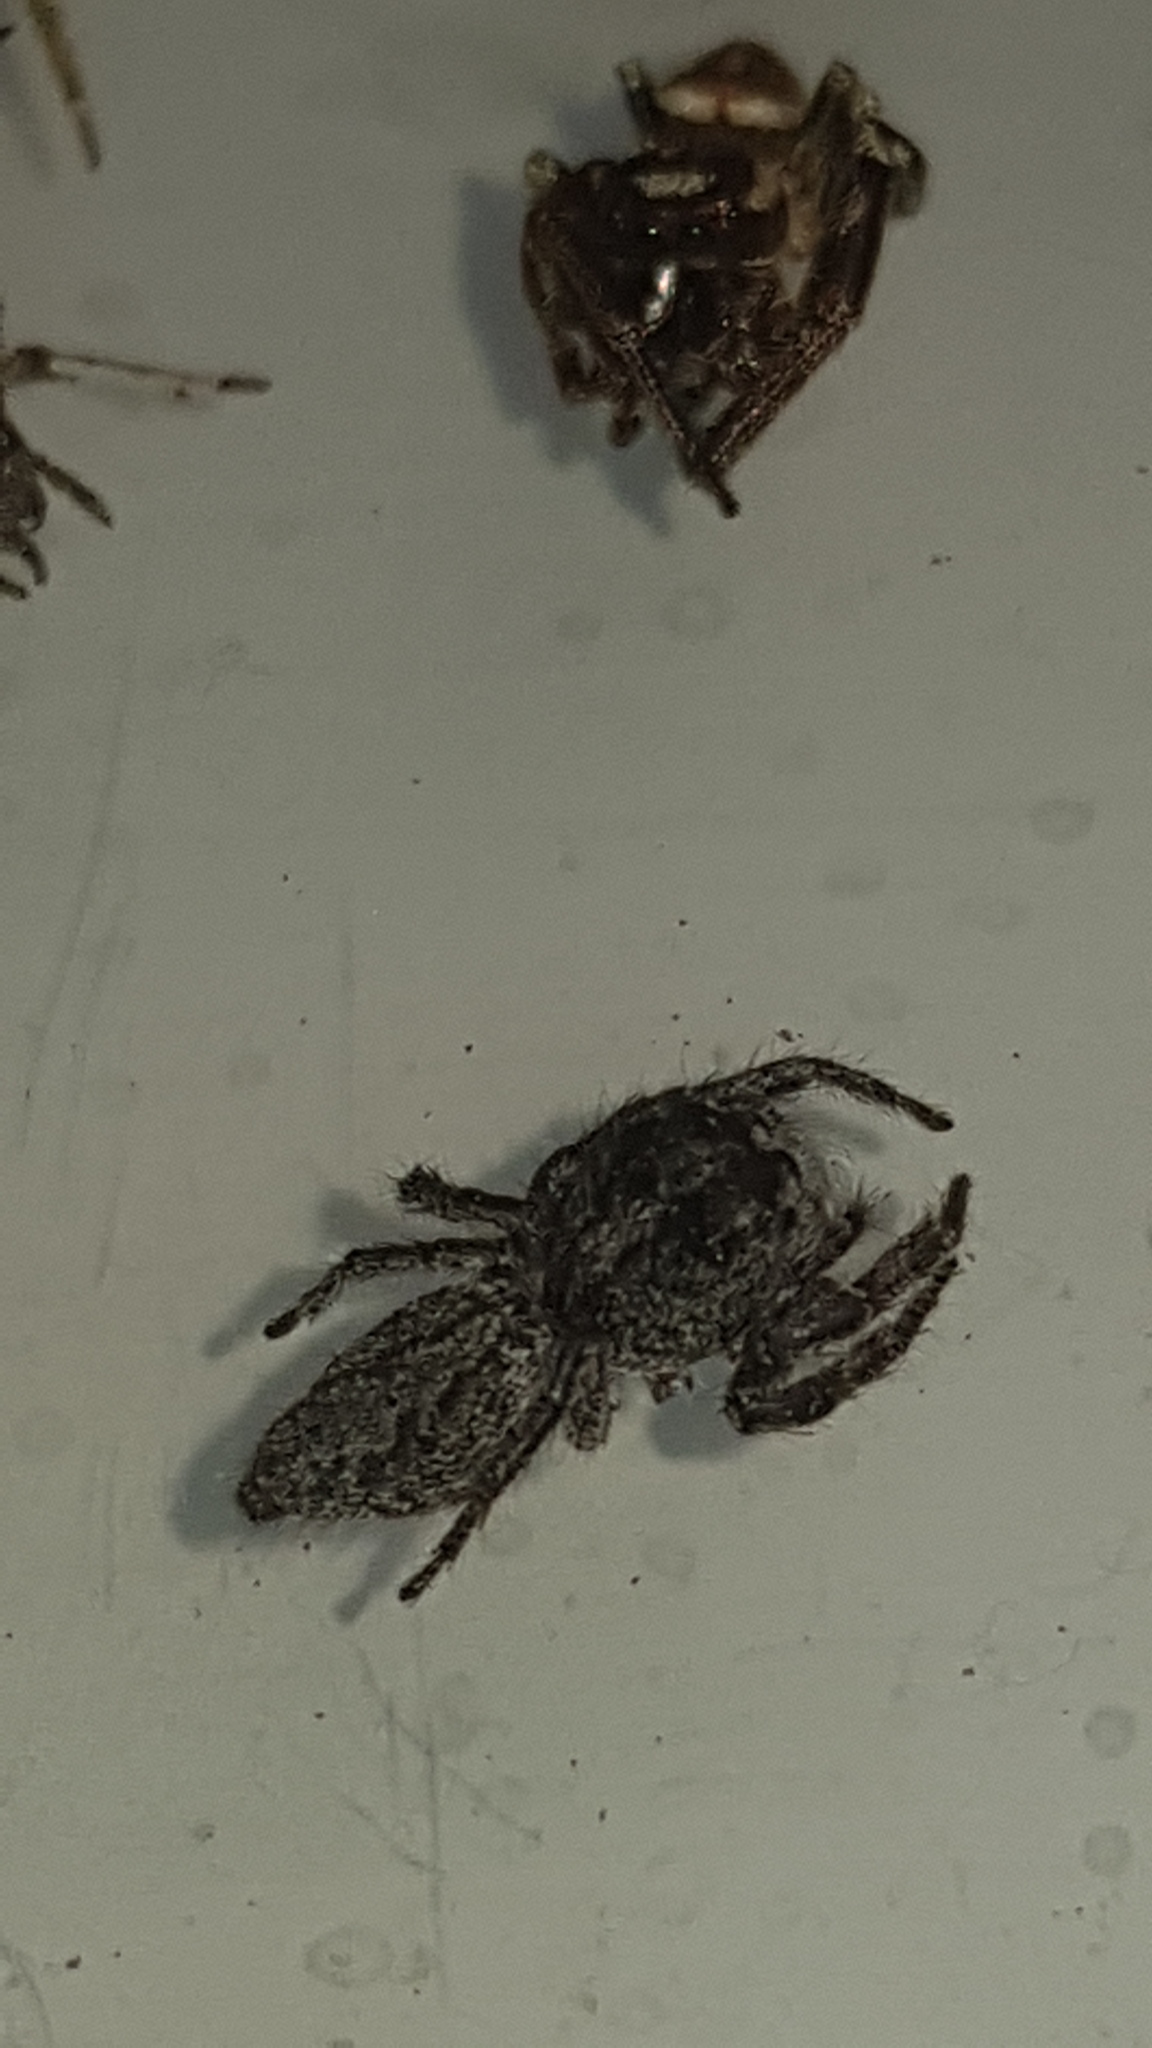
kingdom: Animalia
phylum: Arthropoda
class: Arachnida
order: Araneae
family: Salticidae
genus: Cytaea
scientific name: Cytaea aspera
